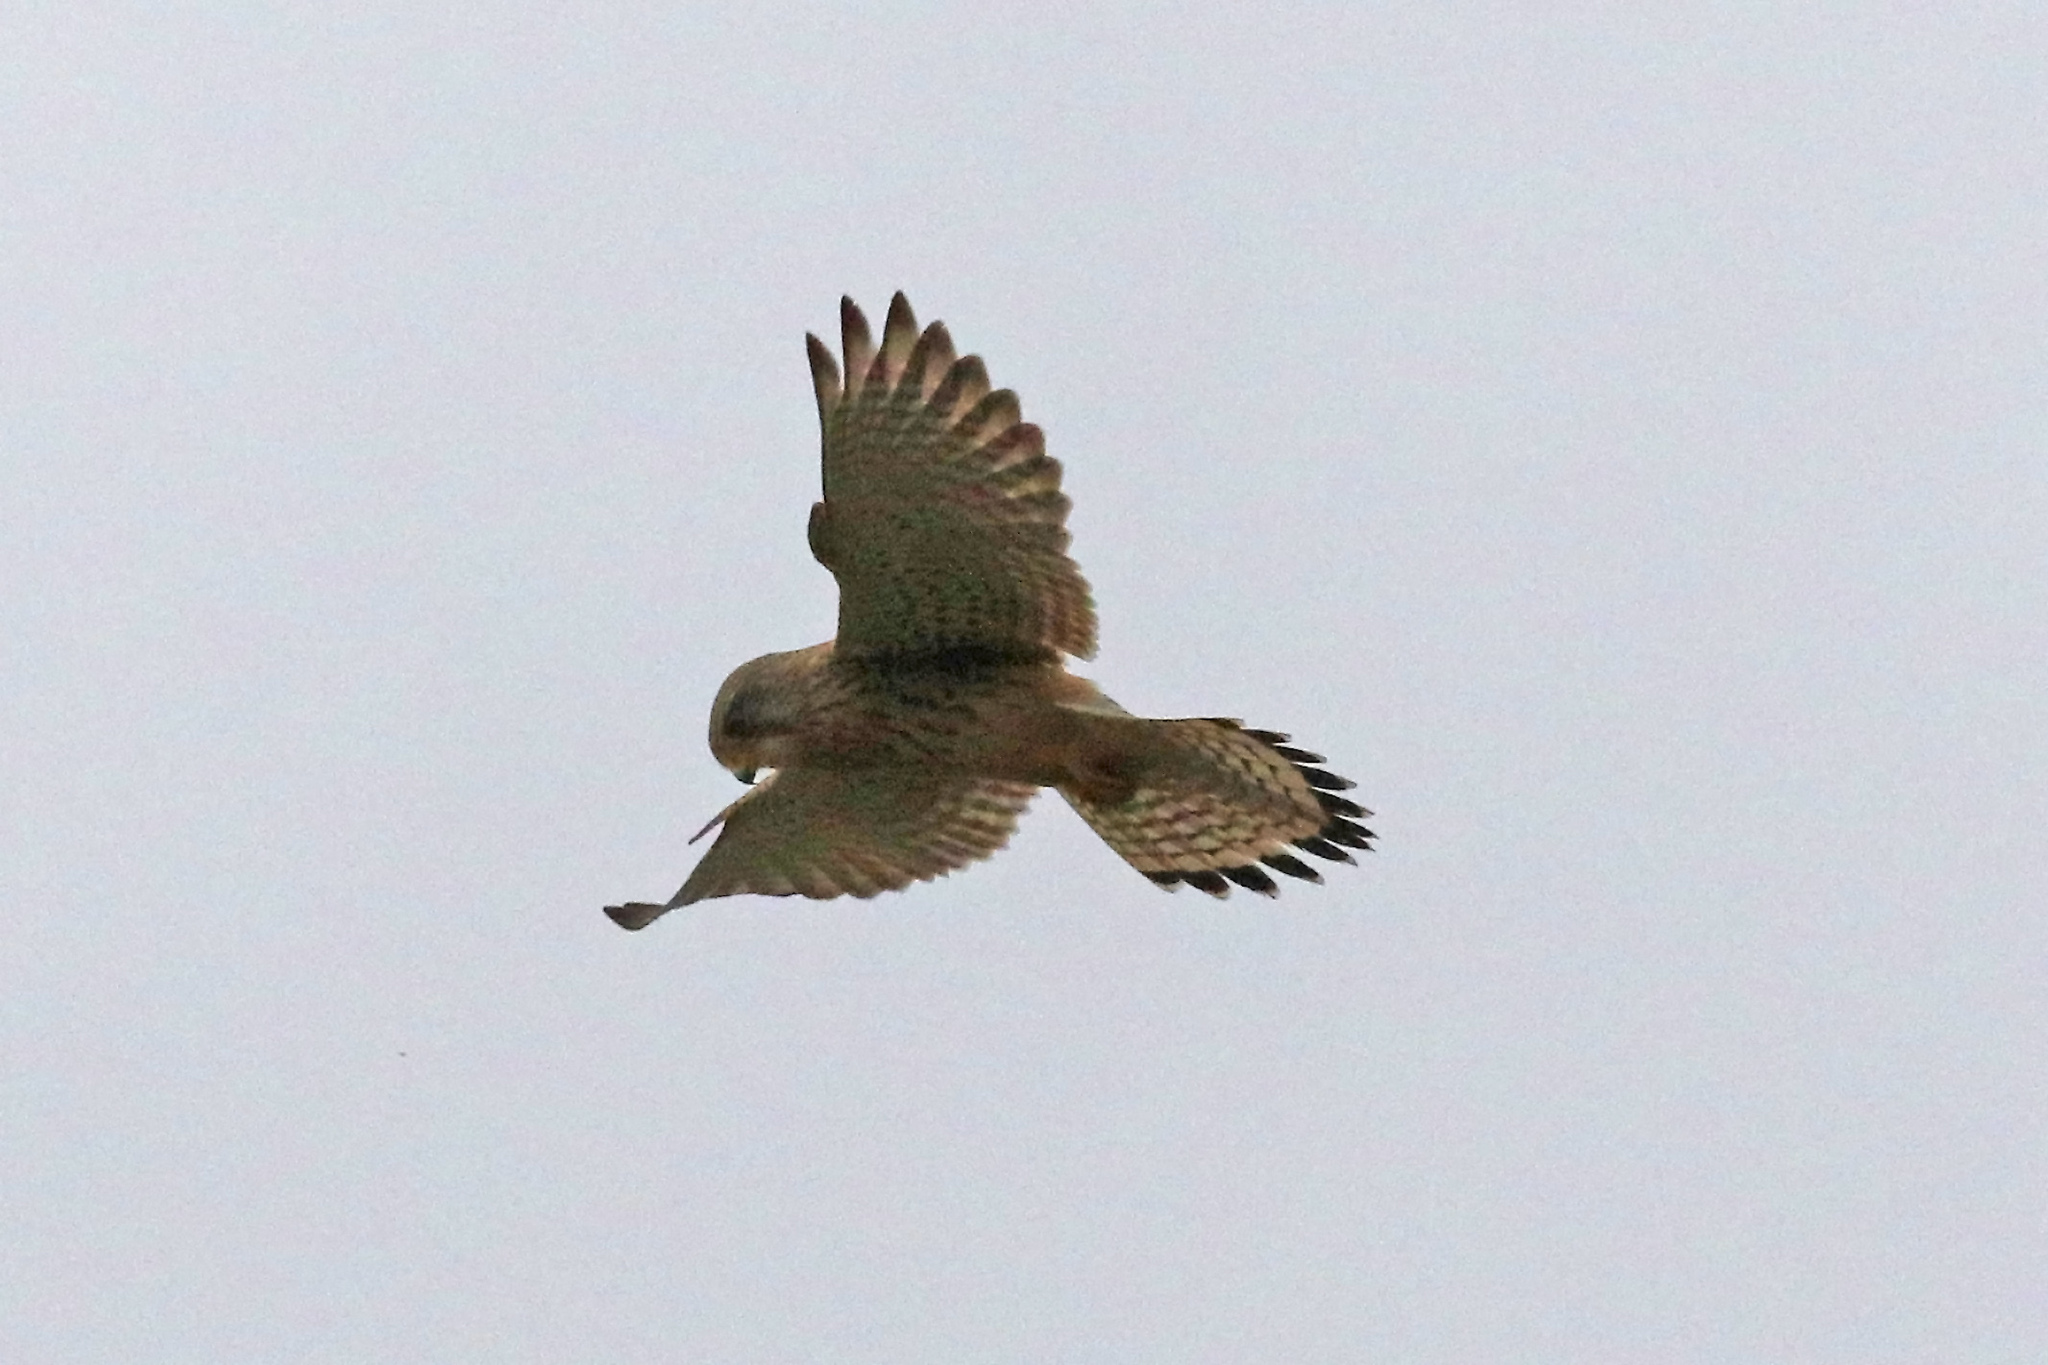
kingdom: Animalia
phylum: Chordata
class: Aves
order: Falconiformes
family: Falconidae
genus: Falco
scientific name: Falco tinnunculus
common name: Common kestrel
